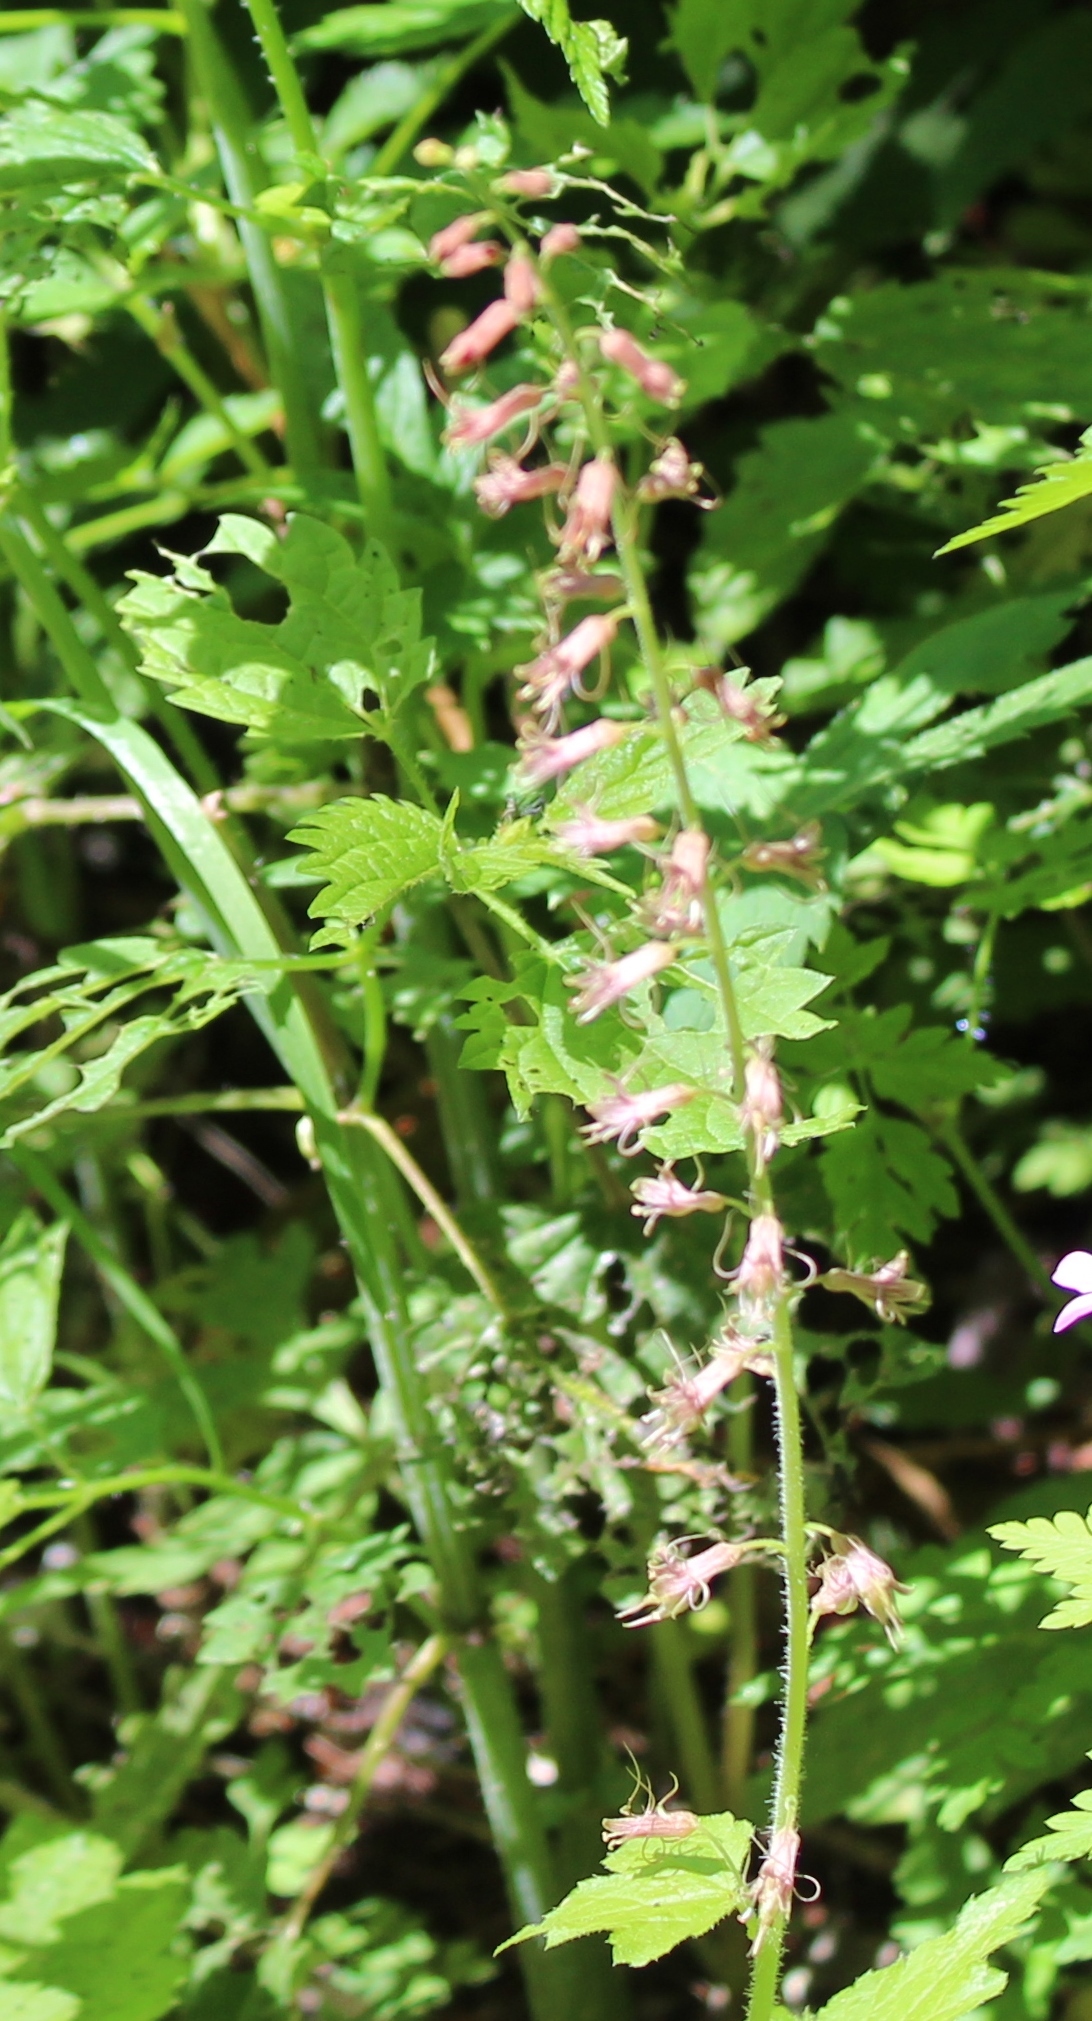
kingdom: Plantae
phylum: Tracheophyta
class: Magnoliopsida
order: Saxifragales
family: Saxifragaceae
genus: Tolmiea
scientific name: Tolmiea menziesii
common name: Pick-a-back-plant
